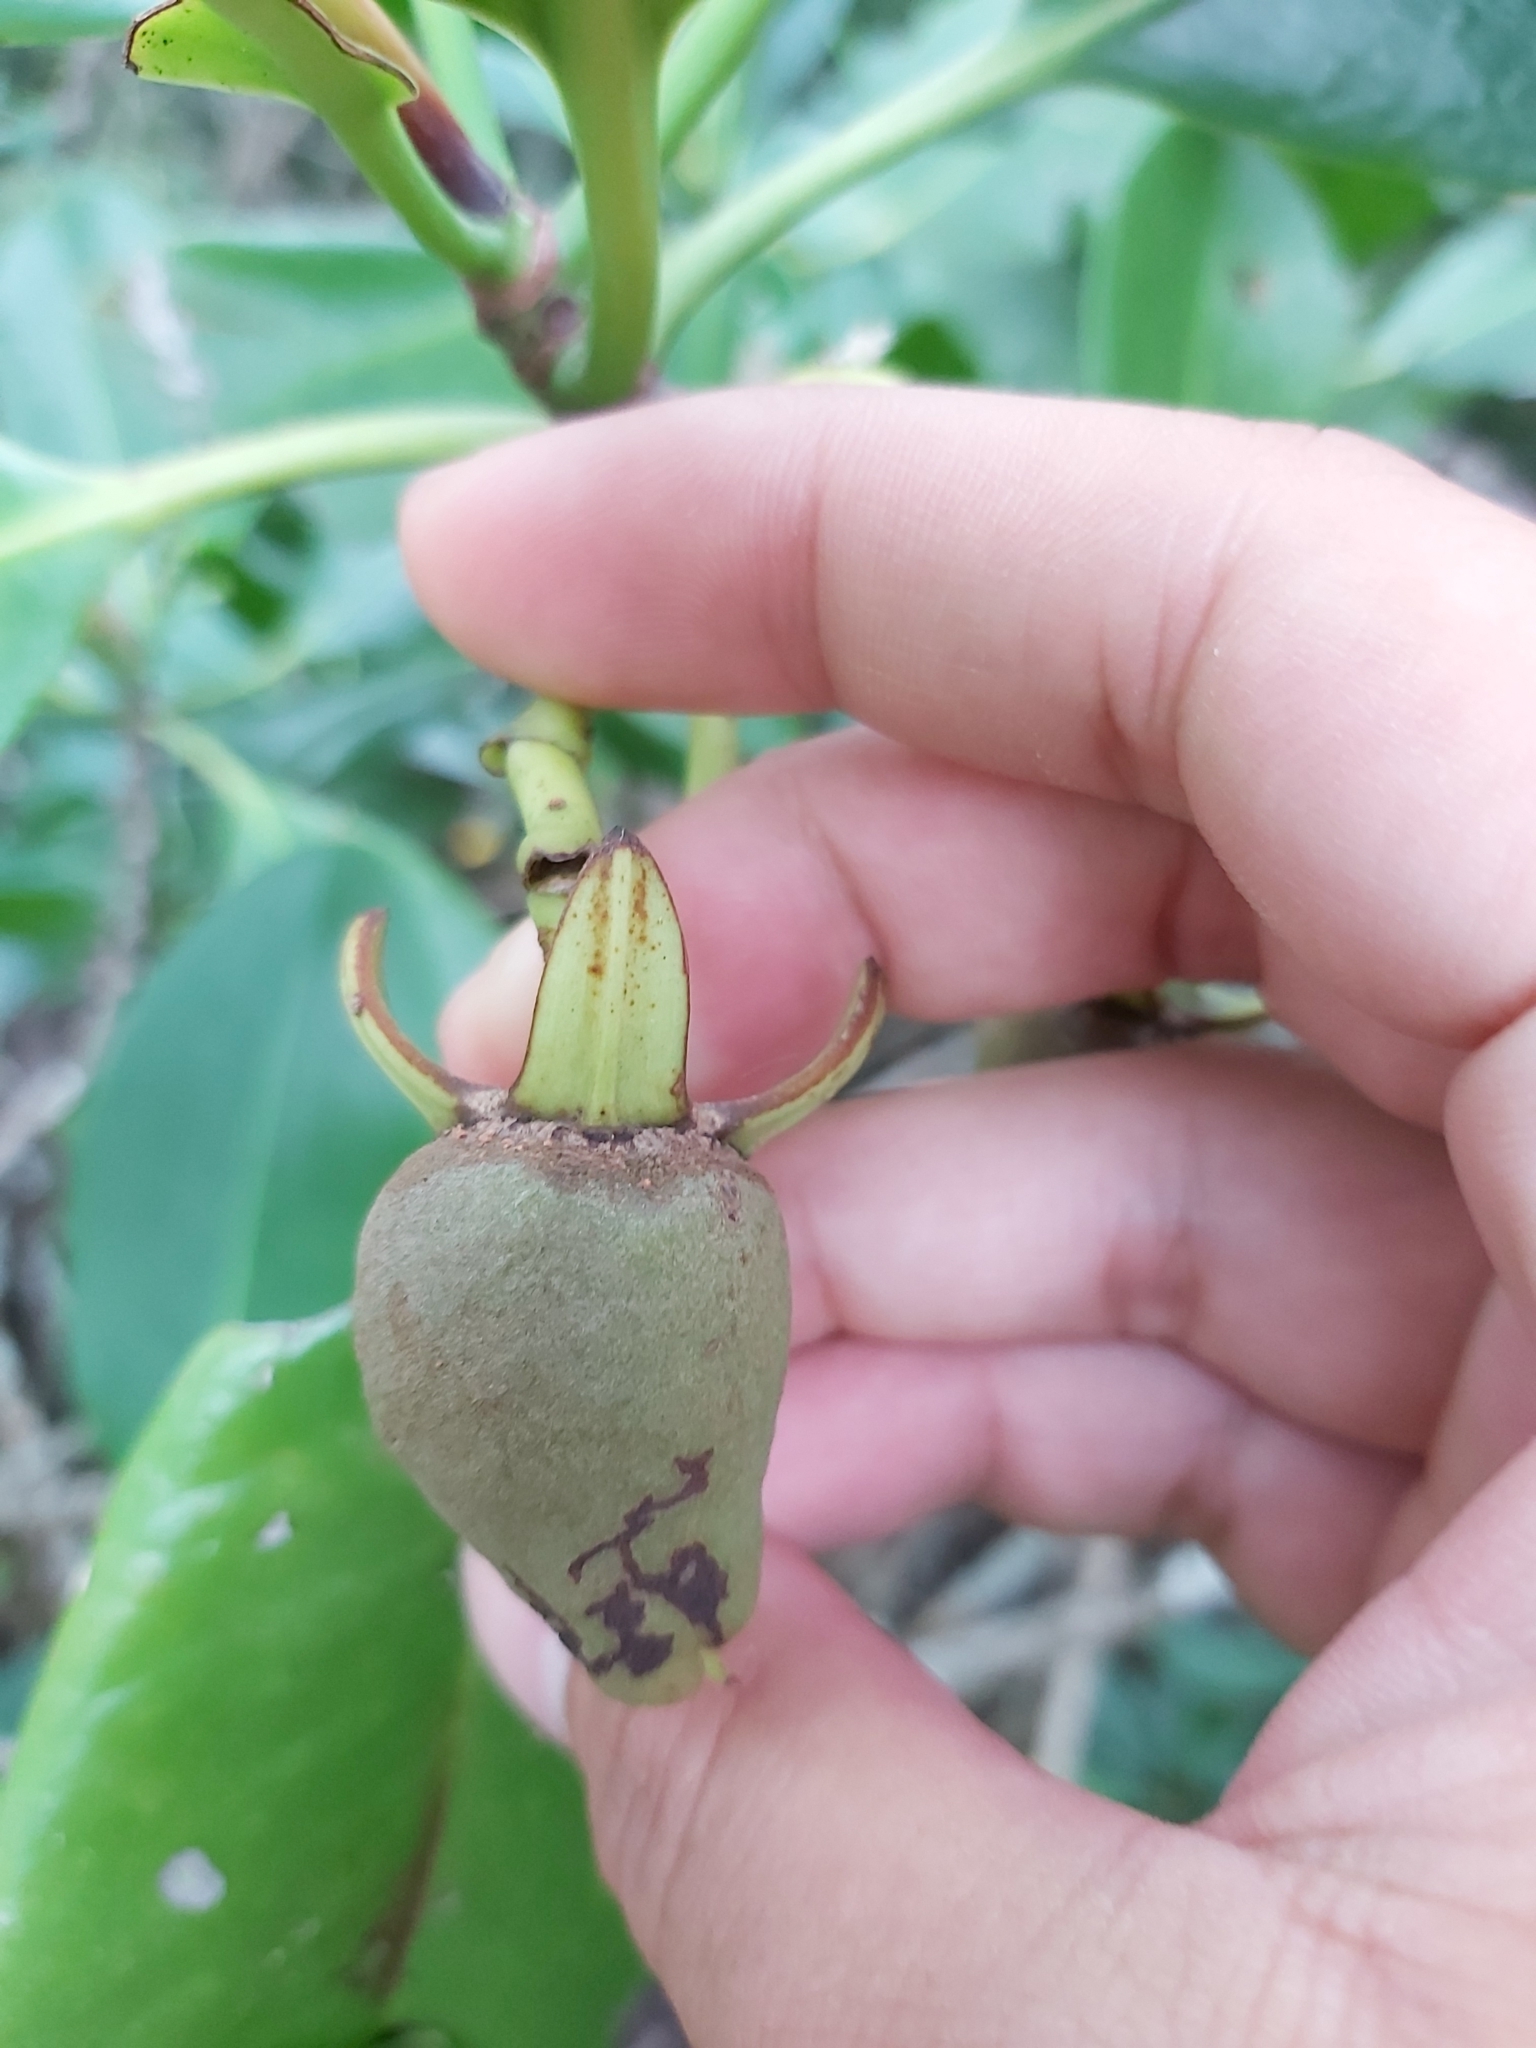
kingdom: Plantae
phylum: Tracheophyta
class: Magnoliopsida
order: Malpighiales
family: Rhizophoraceae
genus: Rhizophora
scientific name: Rhizophora stylosa
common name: Red mangrove
